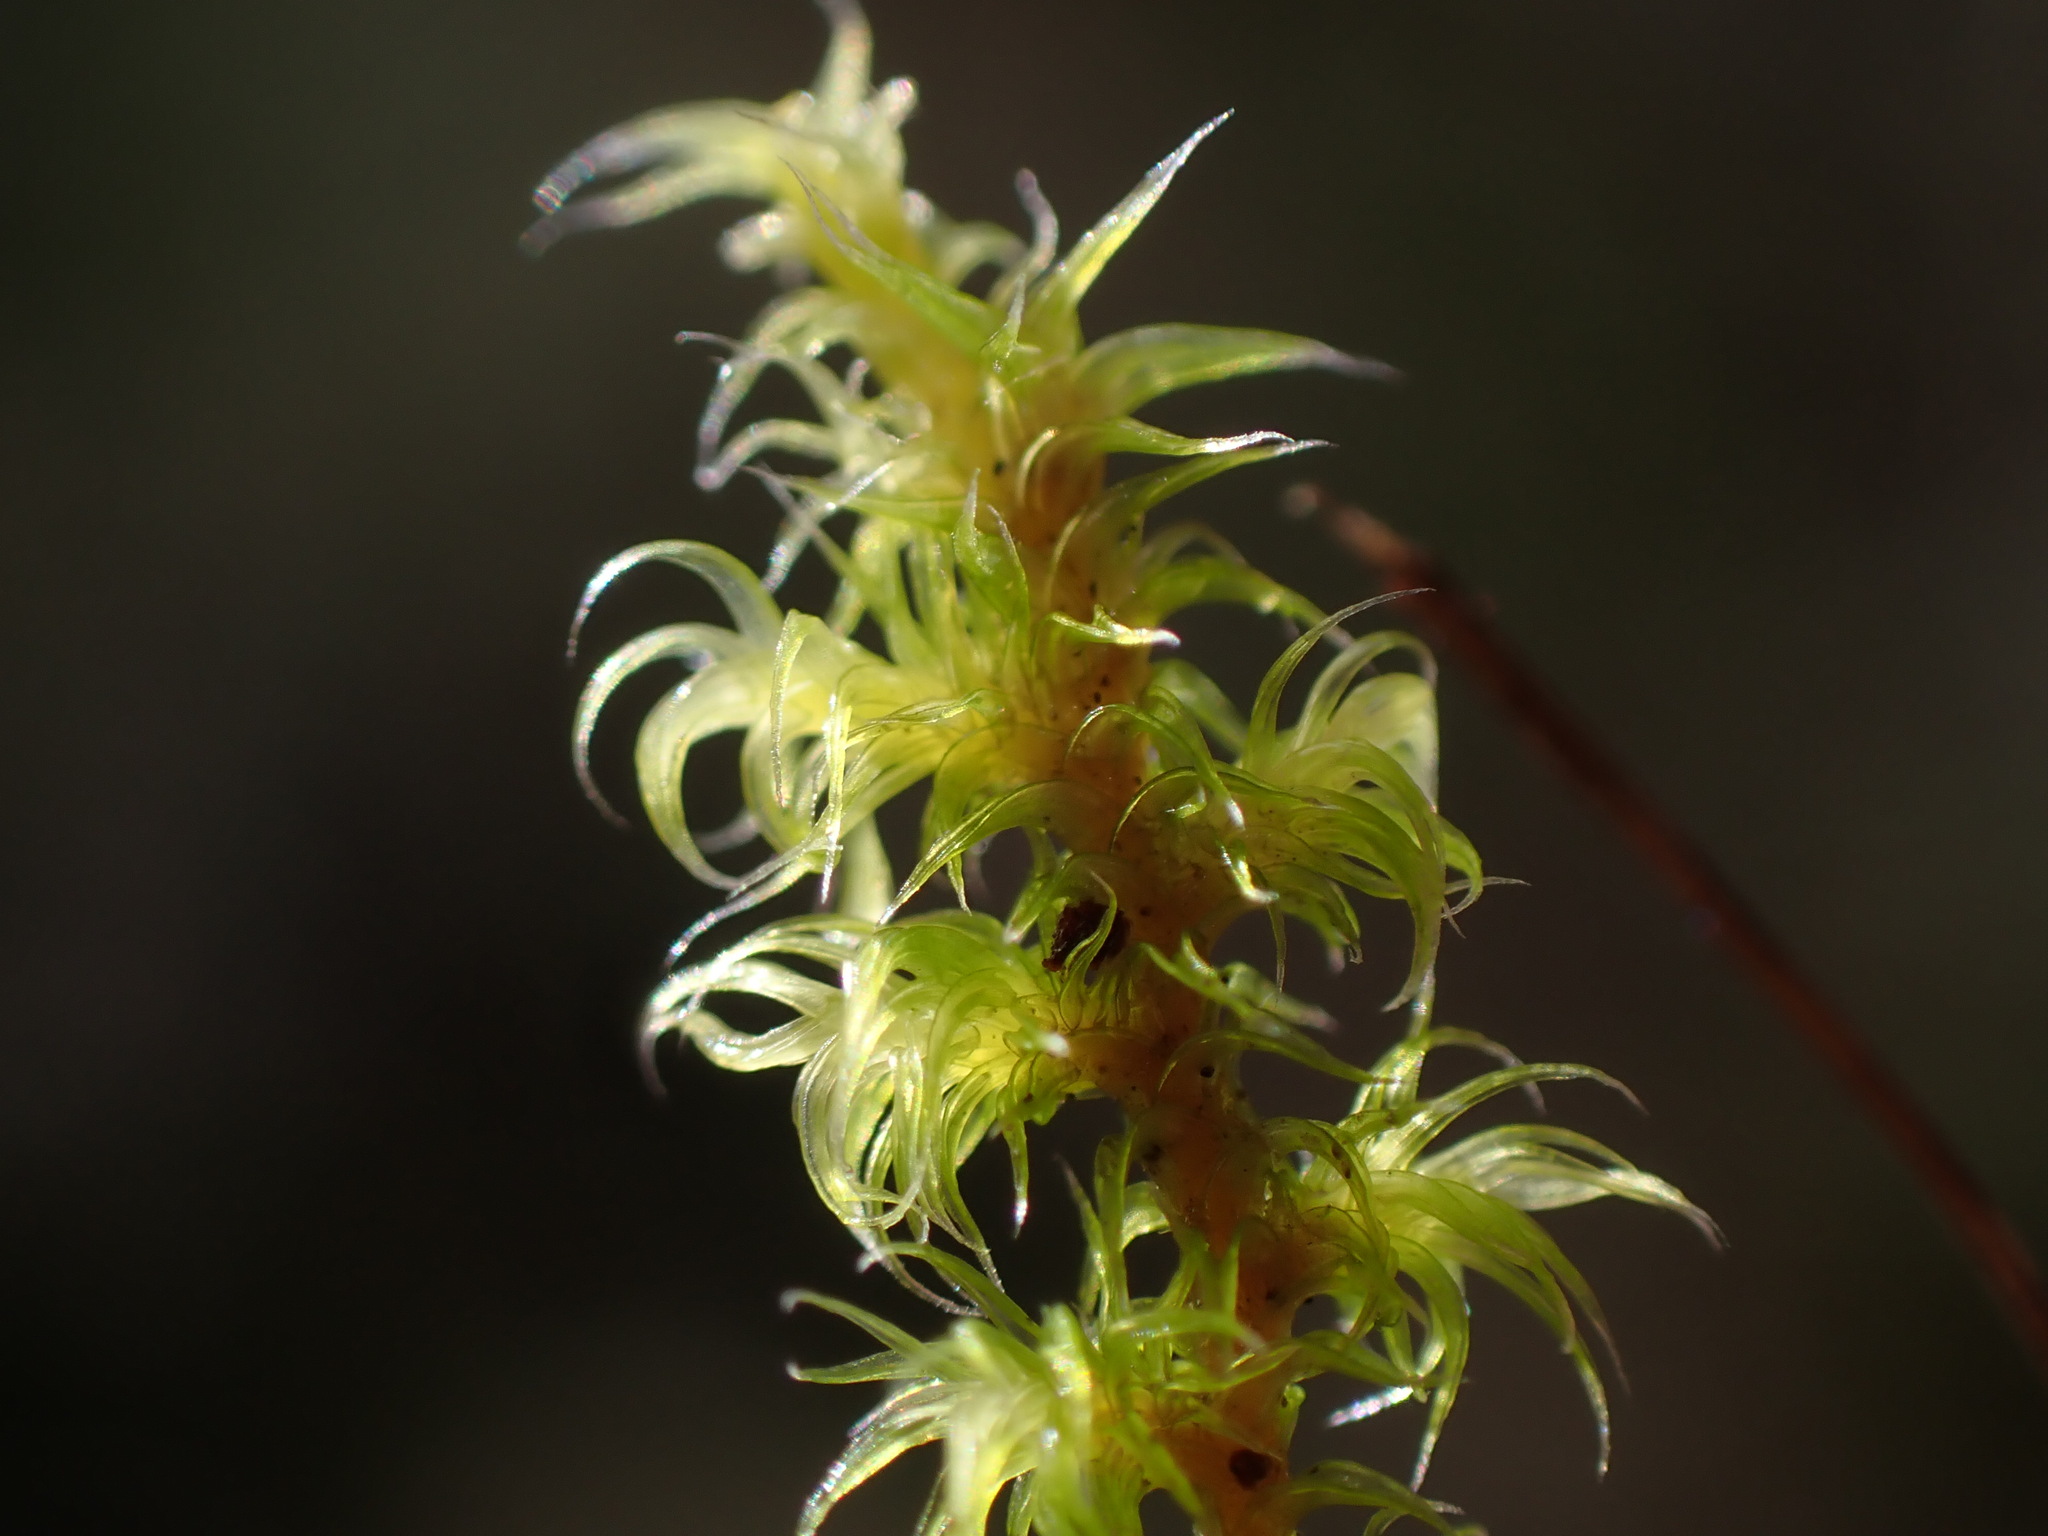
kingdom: Plantae
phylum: Bryophyta
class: Bryopsida
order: Grimmiales
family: Grimmiaceae
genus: Niphotrichum
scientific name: Niphotrichum elongatum
